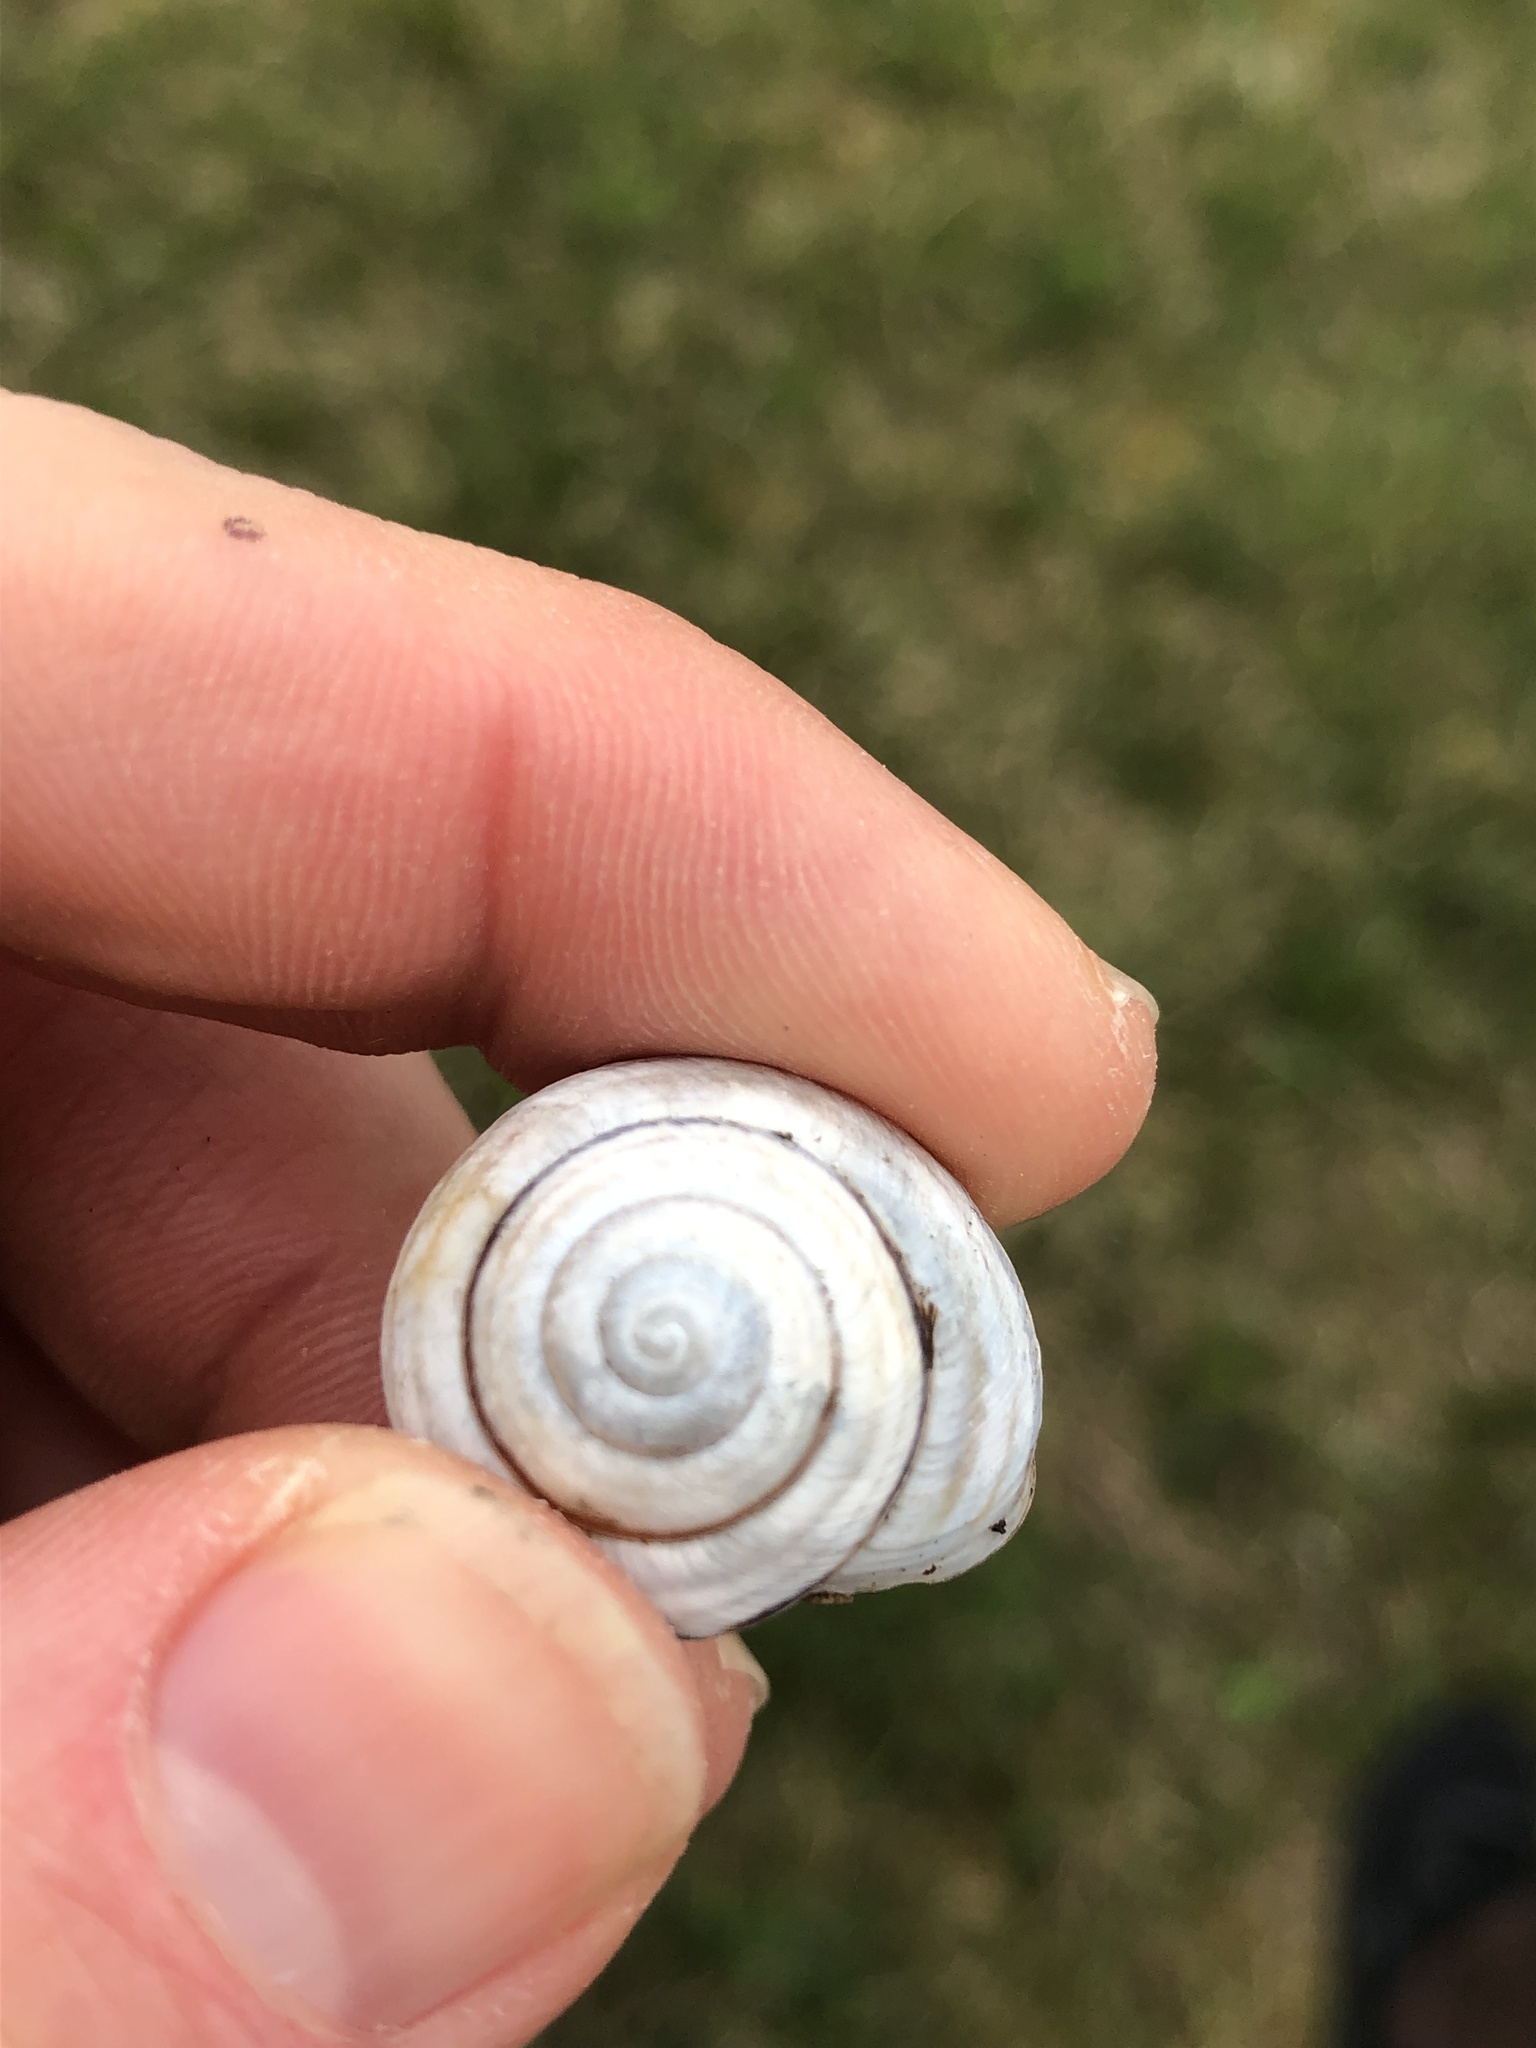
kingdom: Animalia
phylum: Mollusca
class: Gastropoda
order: Stylommatophora
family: Helicidae
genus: Caucasotachea
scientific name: Caucasotachea vindobonensis
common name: European helicid land snail
